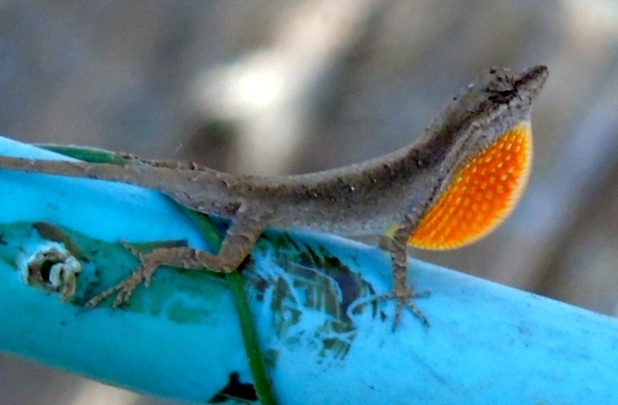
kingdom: Animalia
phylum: Chordata
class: Squamata
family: Dactyloidae
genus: Anolis
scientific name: Anolis nebulosus
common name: Clouded anole
